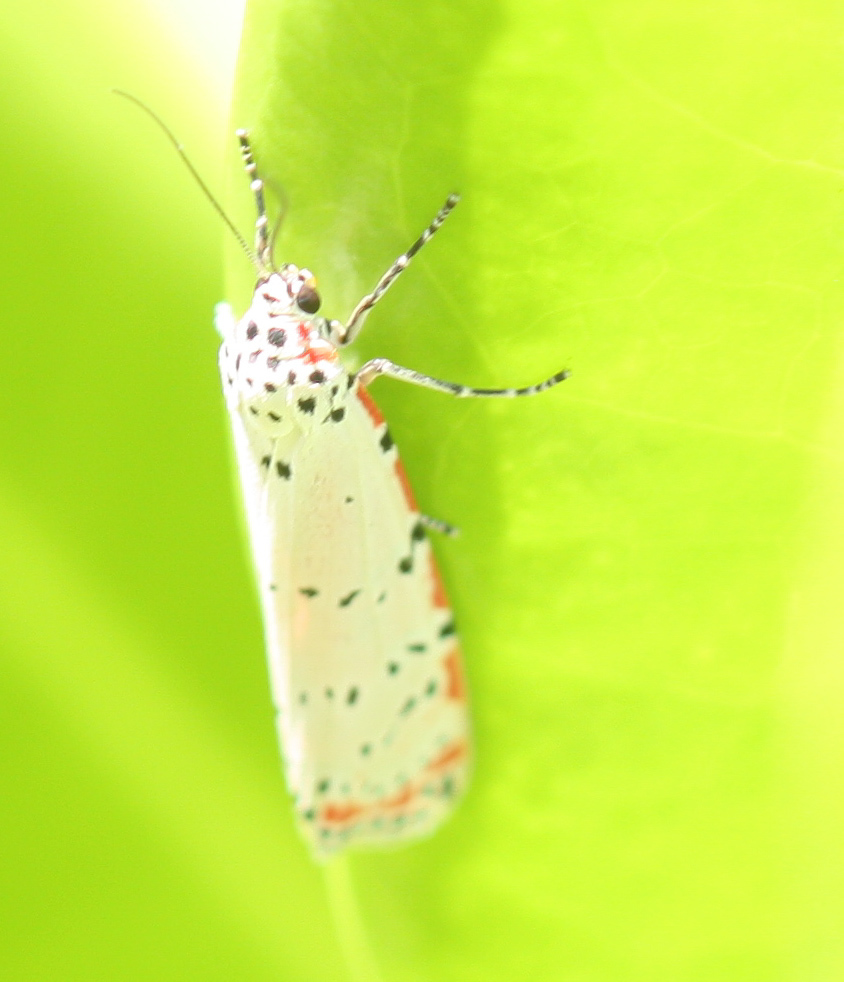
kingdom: Animalia
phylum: Arthropoda
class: Insecta
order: Lepidoptera
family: Erebidae
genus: Utetheisa
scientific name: Utetheisa ornatrix
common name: Beautiful utetheisa
